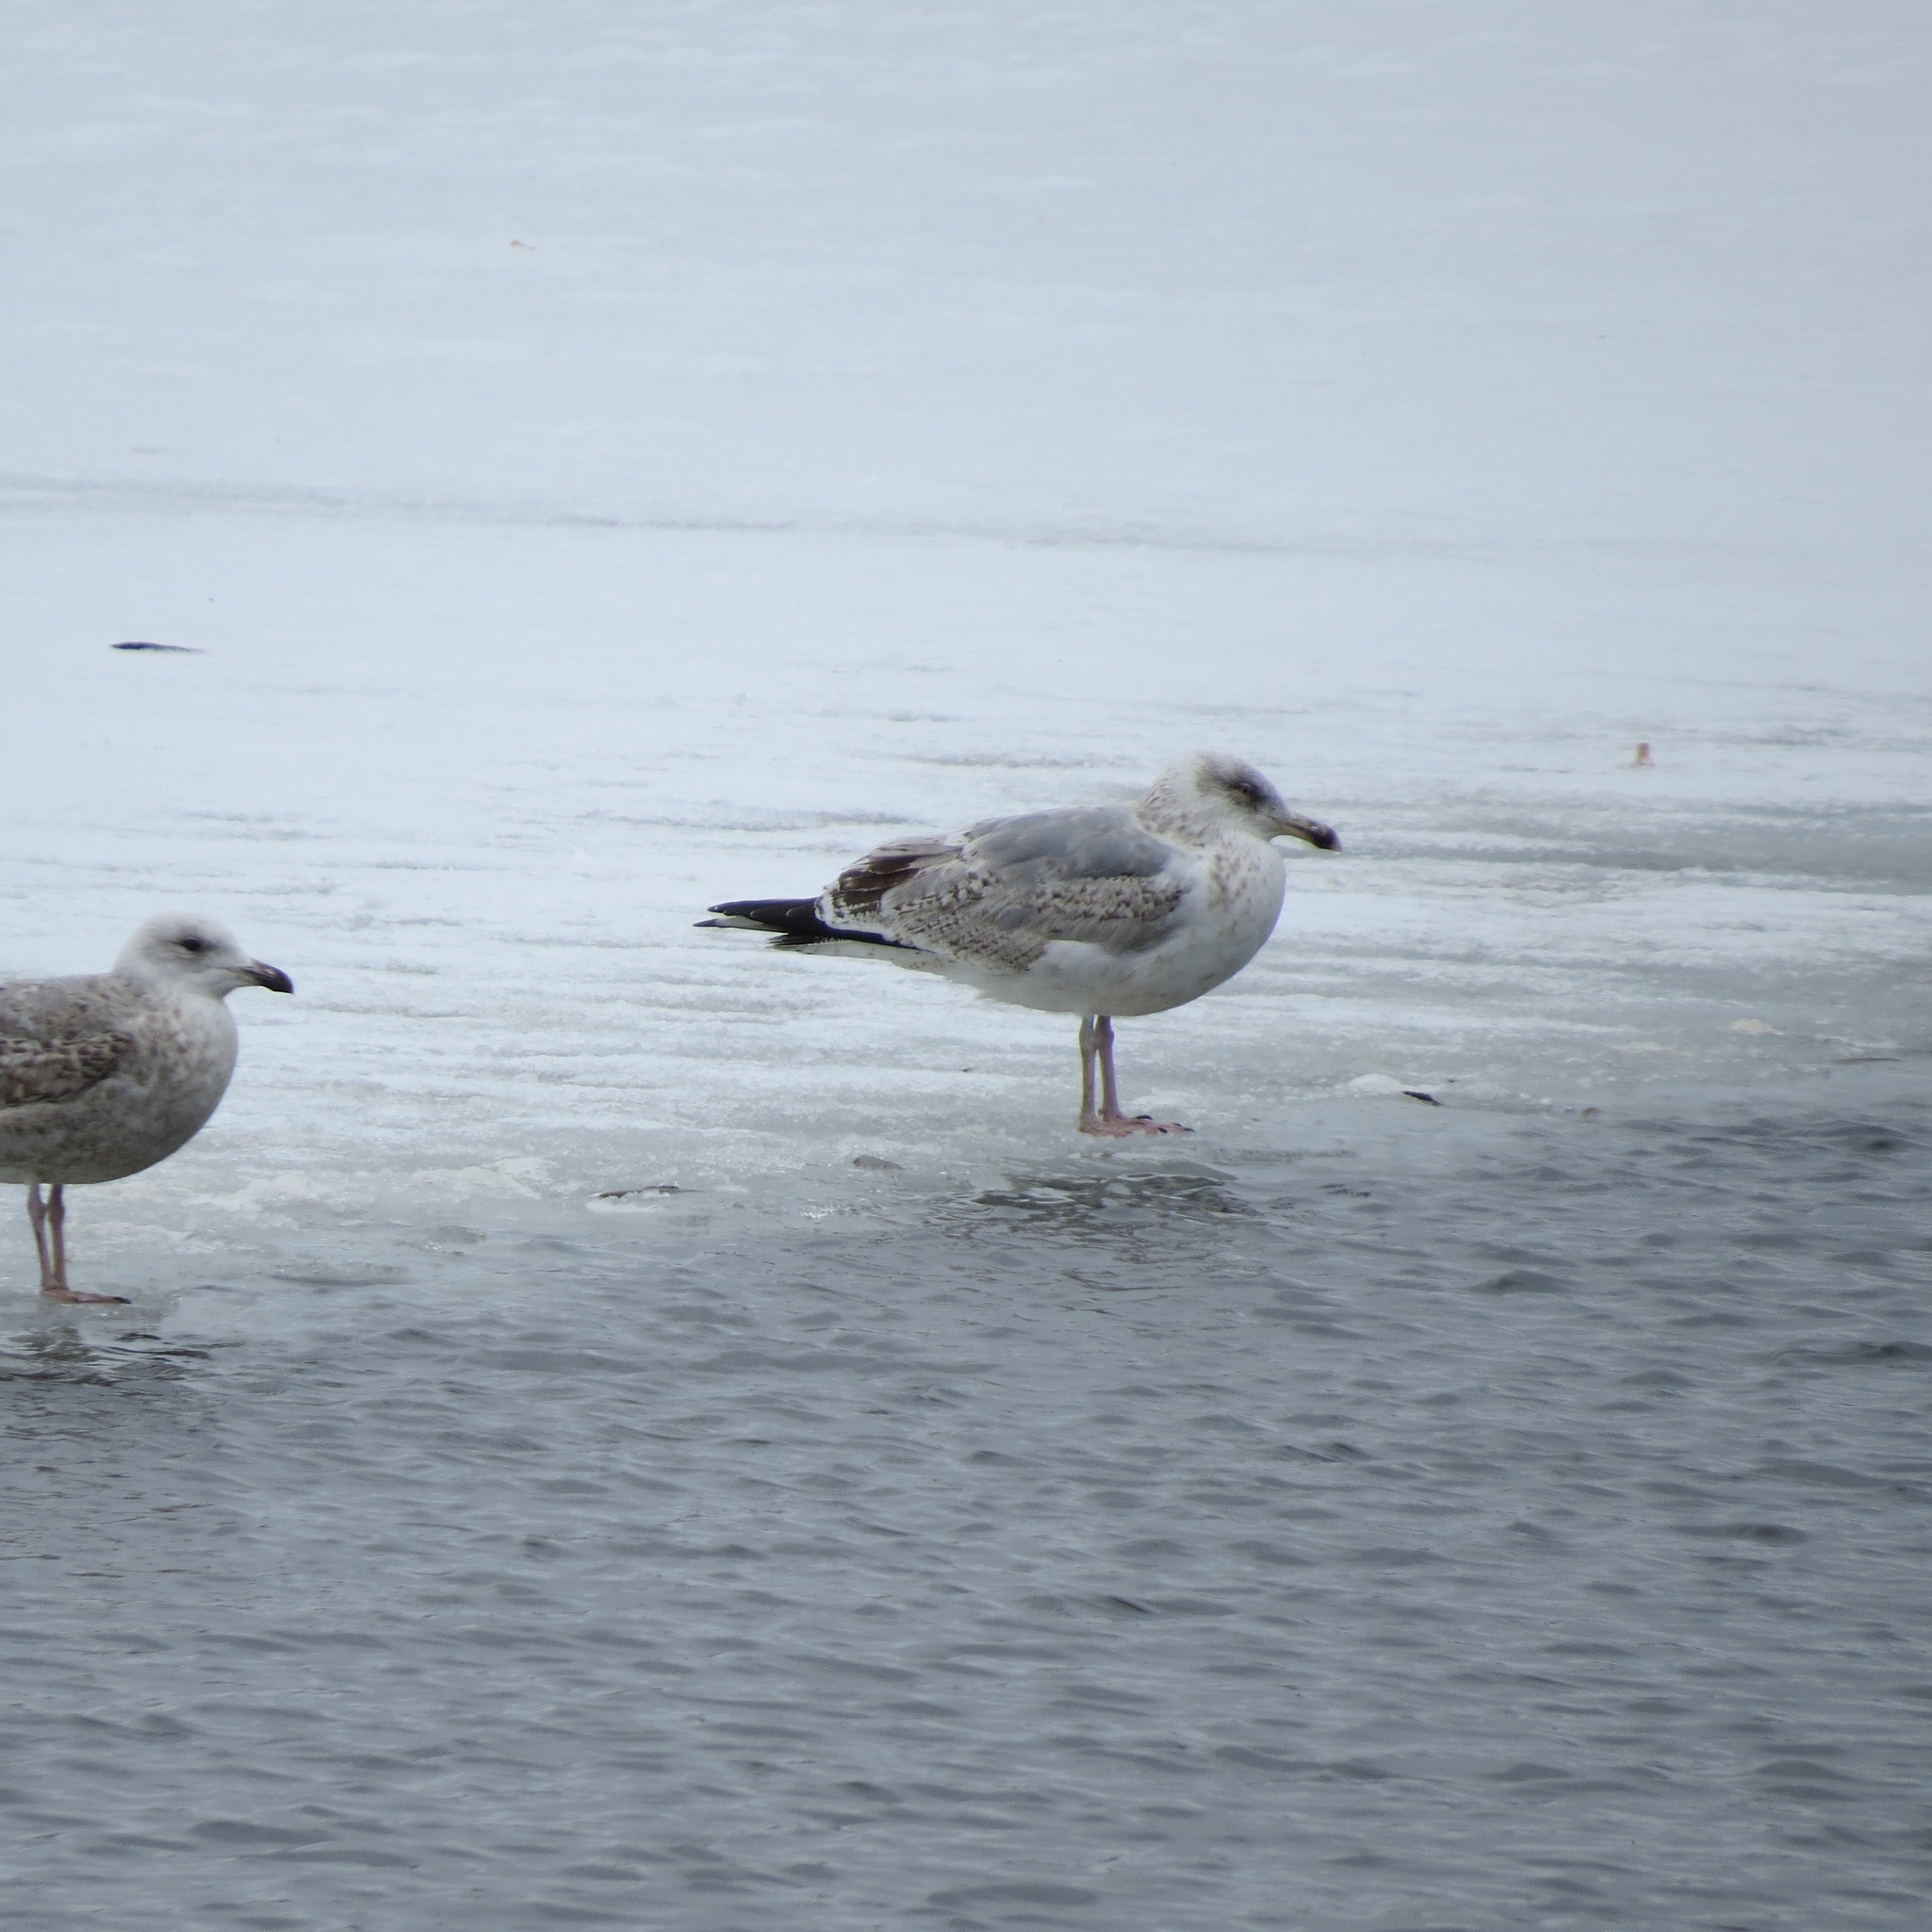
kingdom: Animalia
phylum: Chordata
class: Aves
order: Charadriiformes
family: Laridae
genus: Larus
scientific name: Larus argentatus
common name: Herring gull
